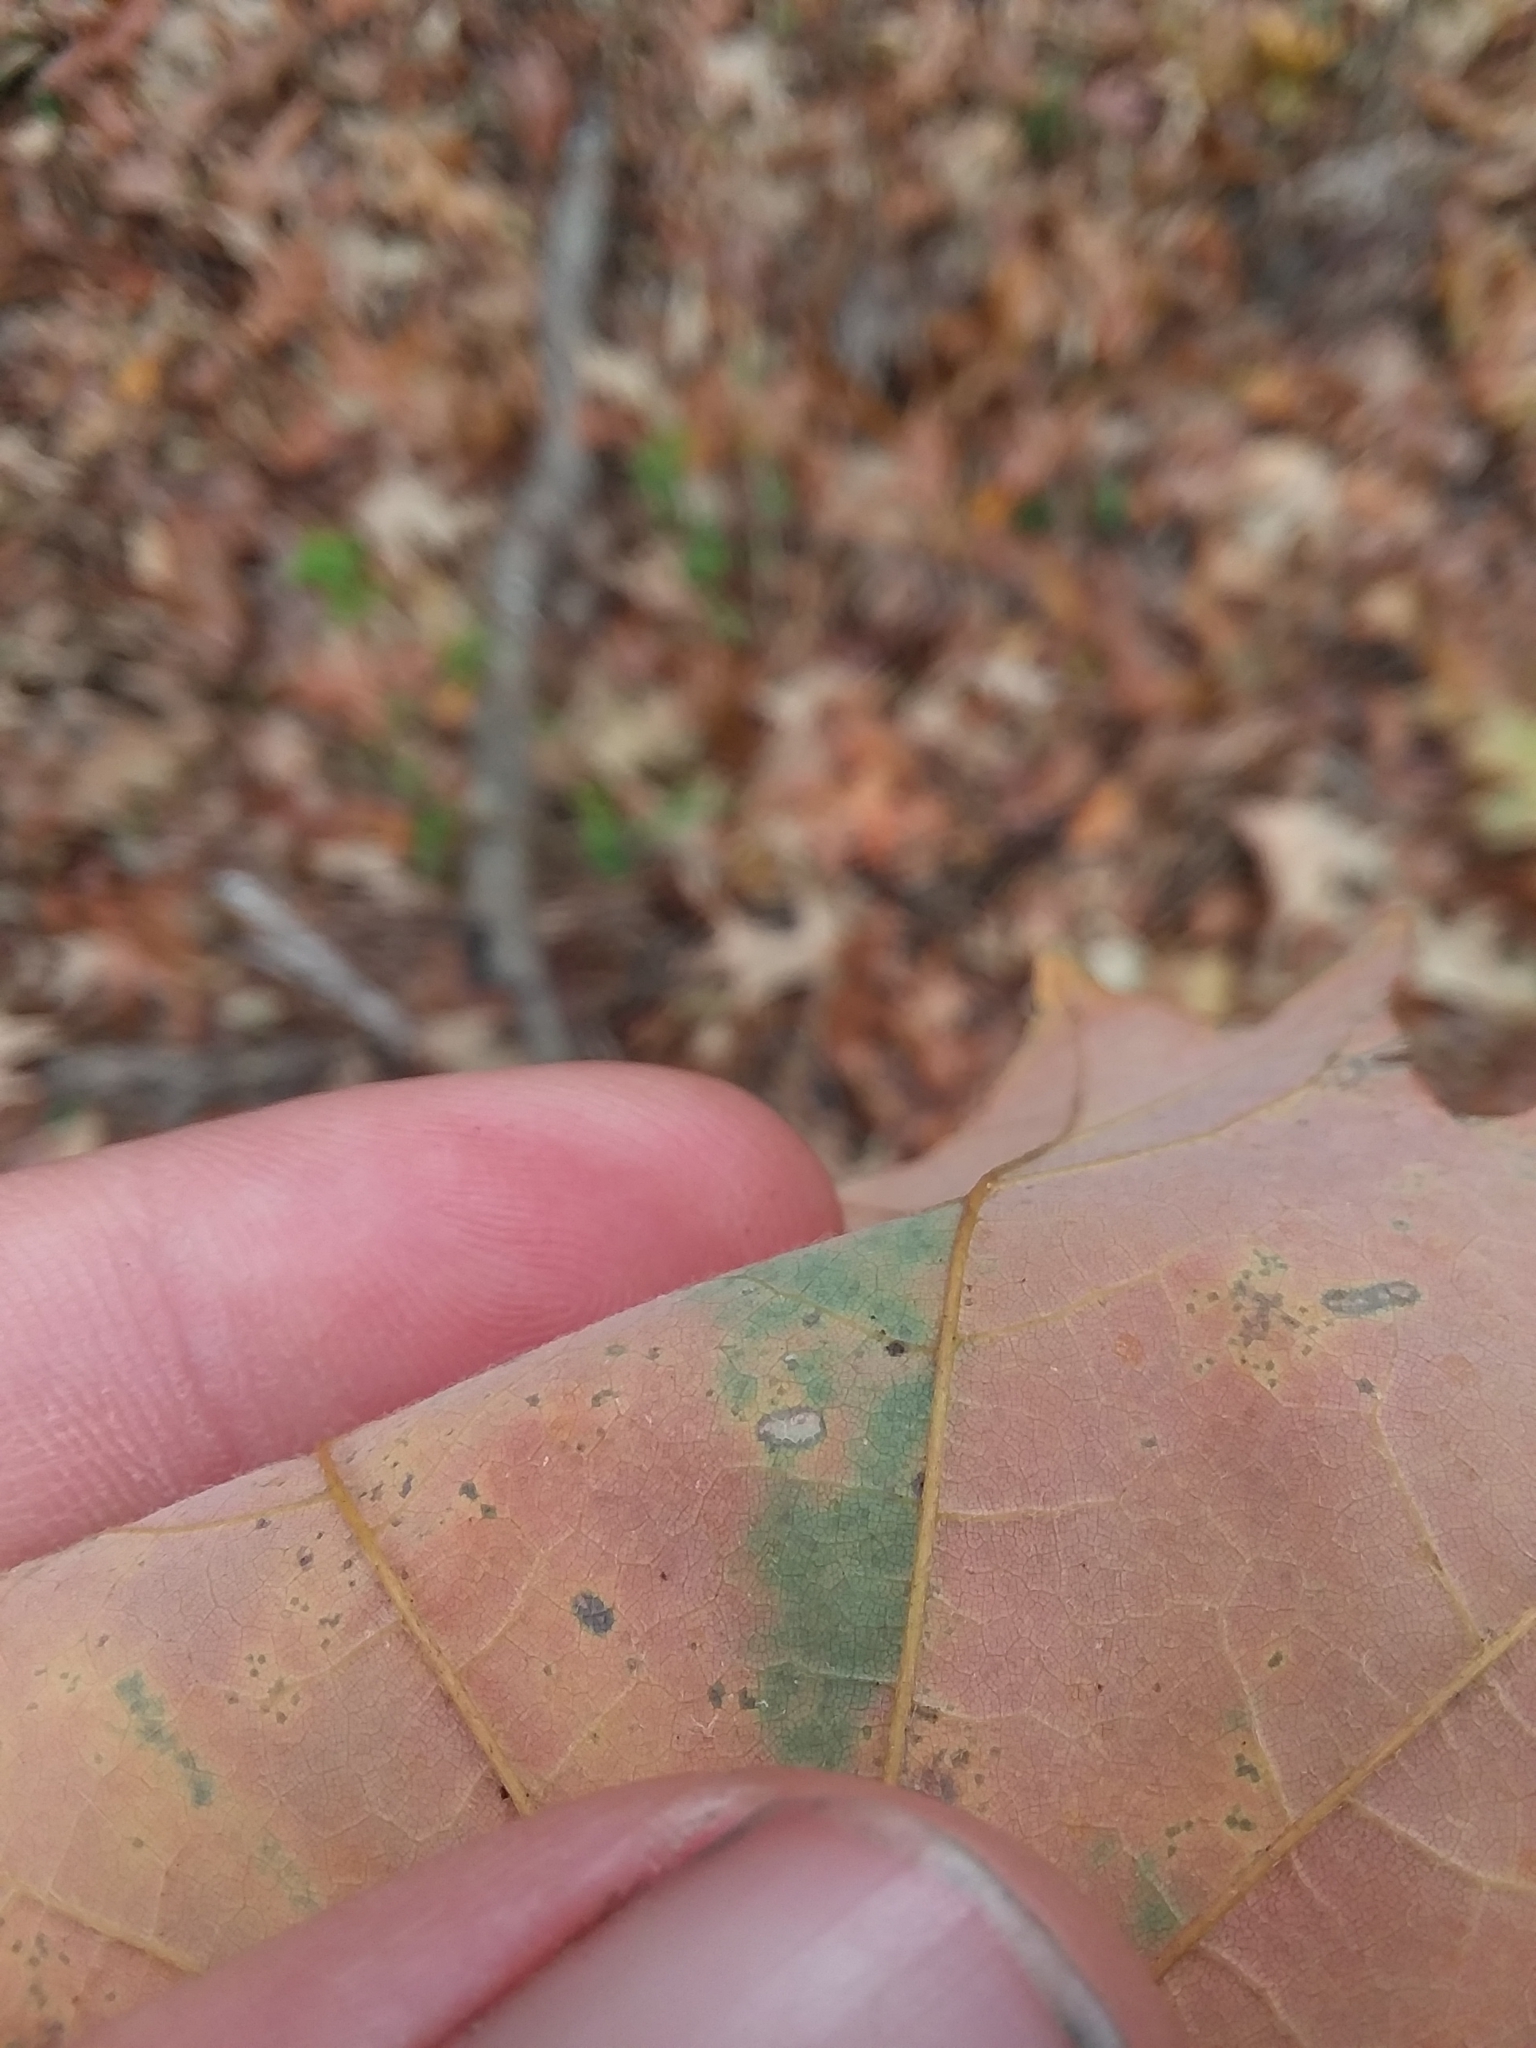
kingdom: Plantae
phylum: Tracheophyta
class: Magnoliopsida
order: Sapindales
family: Sapindaceae
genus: Acer
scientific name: Acer floridanum
